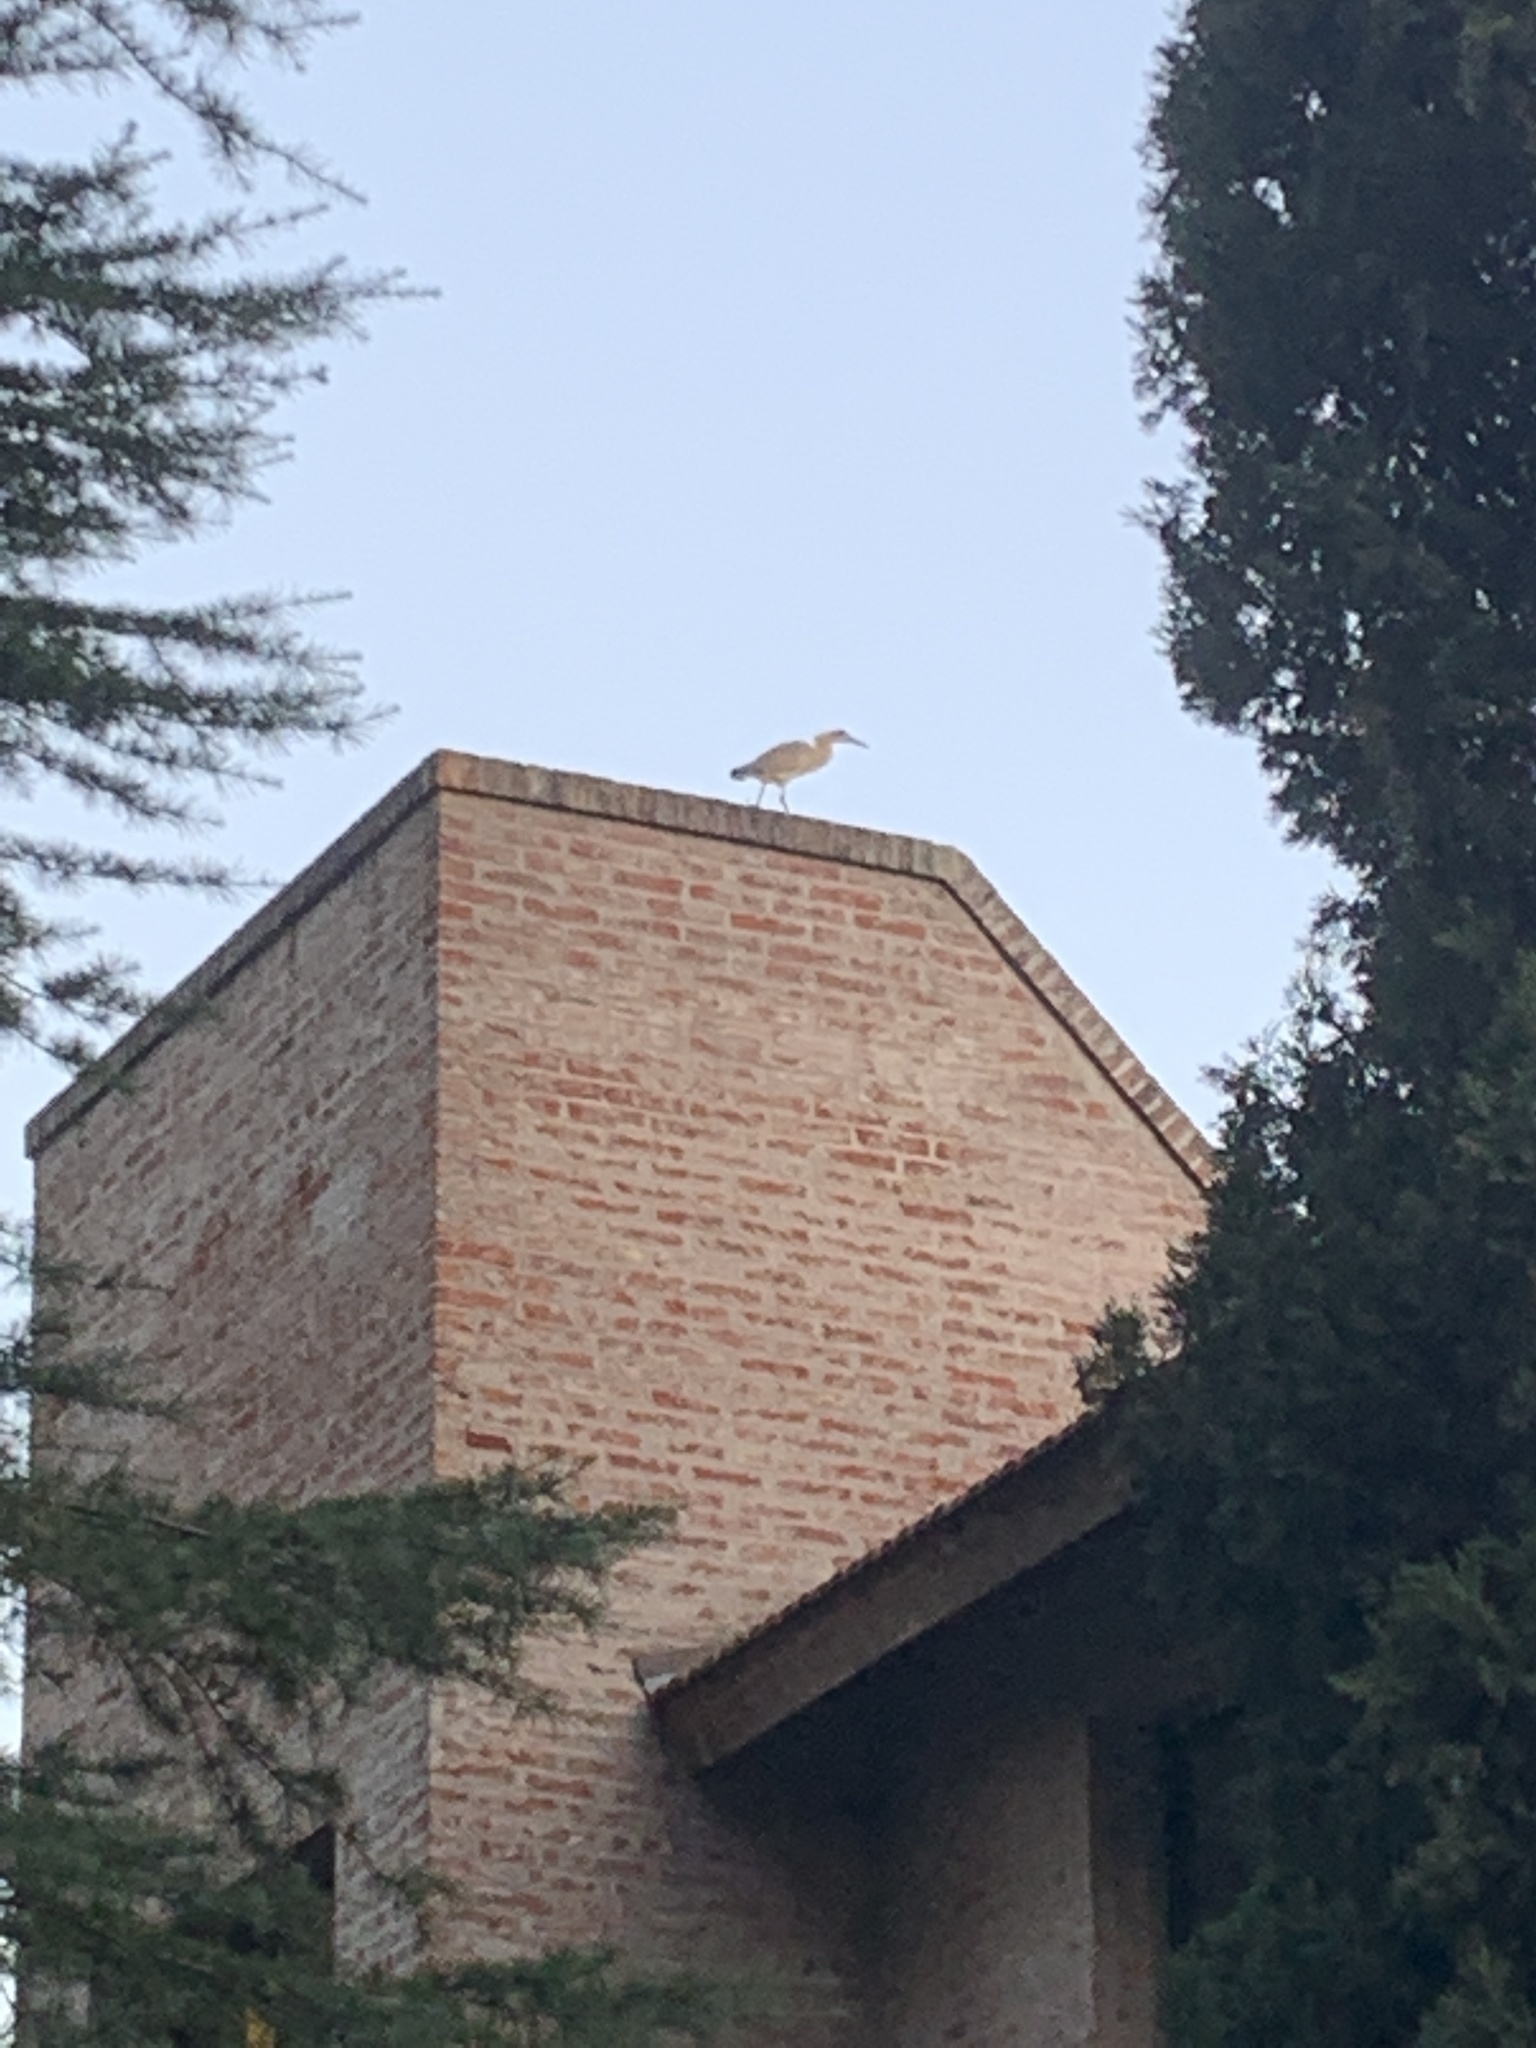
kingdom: Animalia
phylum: Chordata
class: Aves
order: Pelecaniformes
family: Ardeidae
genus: Syrigma
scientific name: Syrigma sibilatrix
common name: Whistling heron
